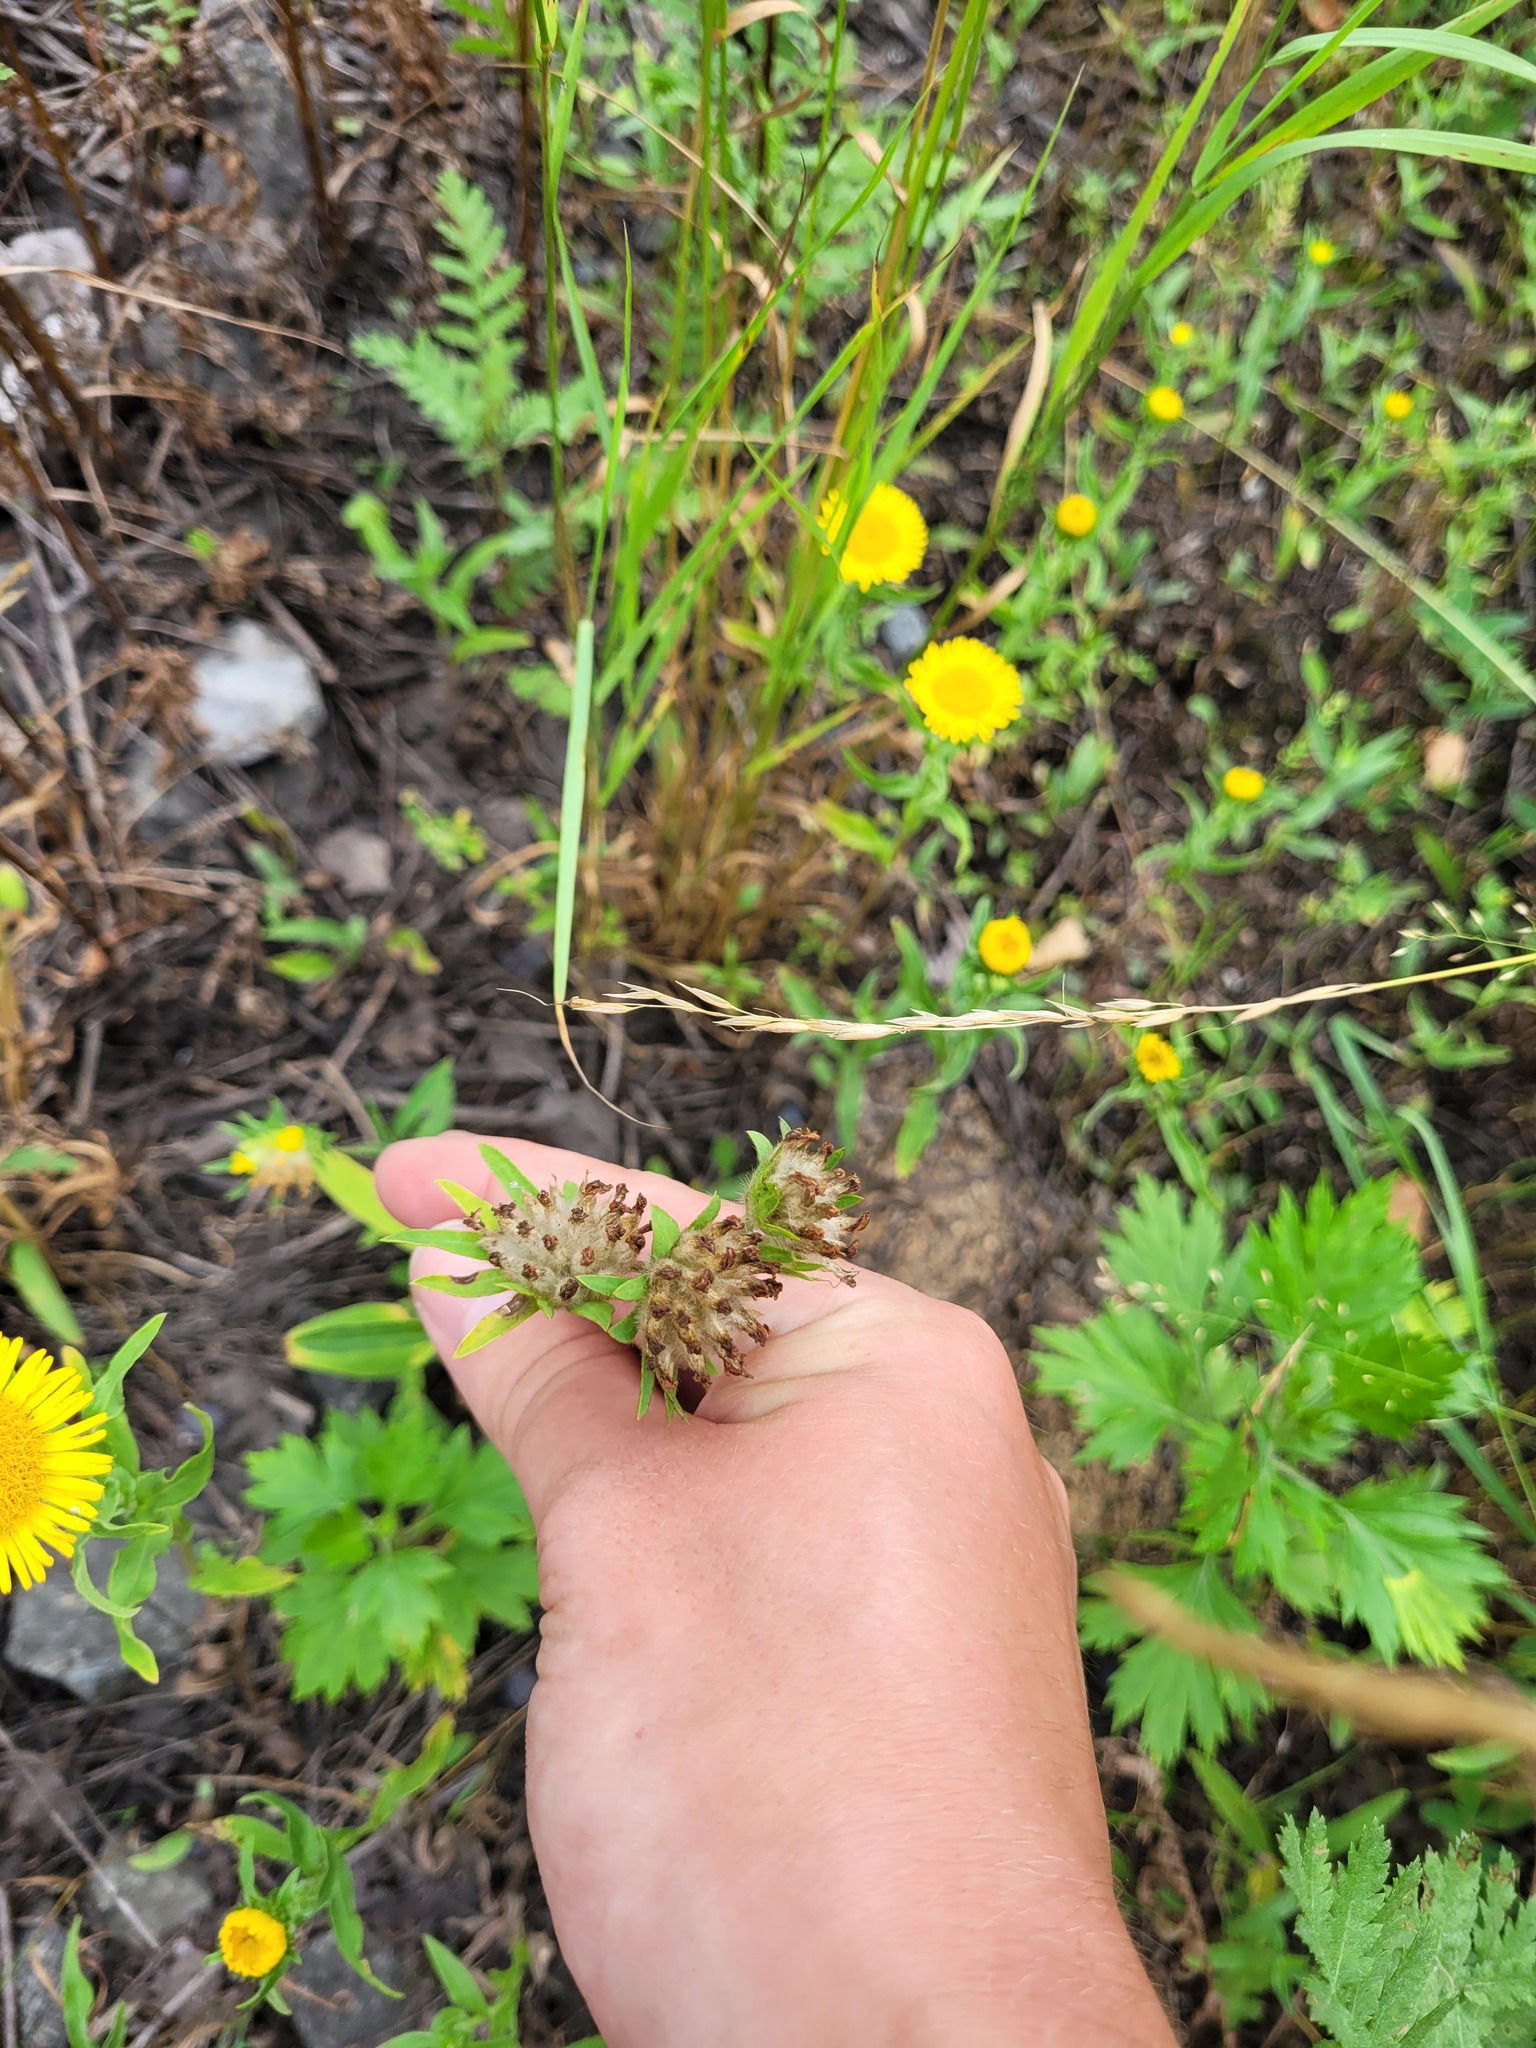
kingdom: Plantae
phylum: Tracheophyta
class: Magnoliopsida
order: Fabales
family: Fabaceae
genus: Anthyllis
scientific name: Anthyllis vulneraria
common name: Kidney vetch
